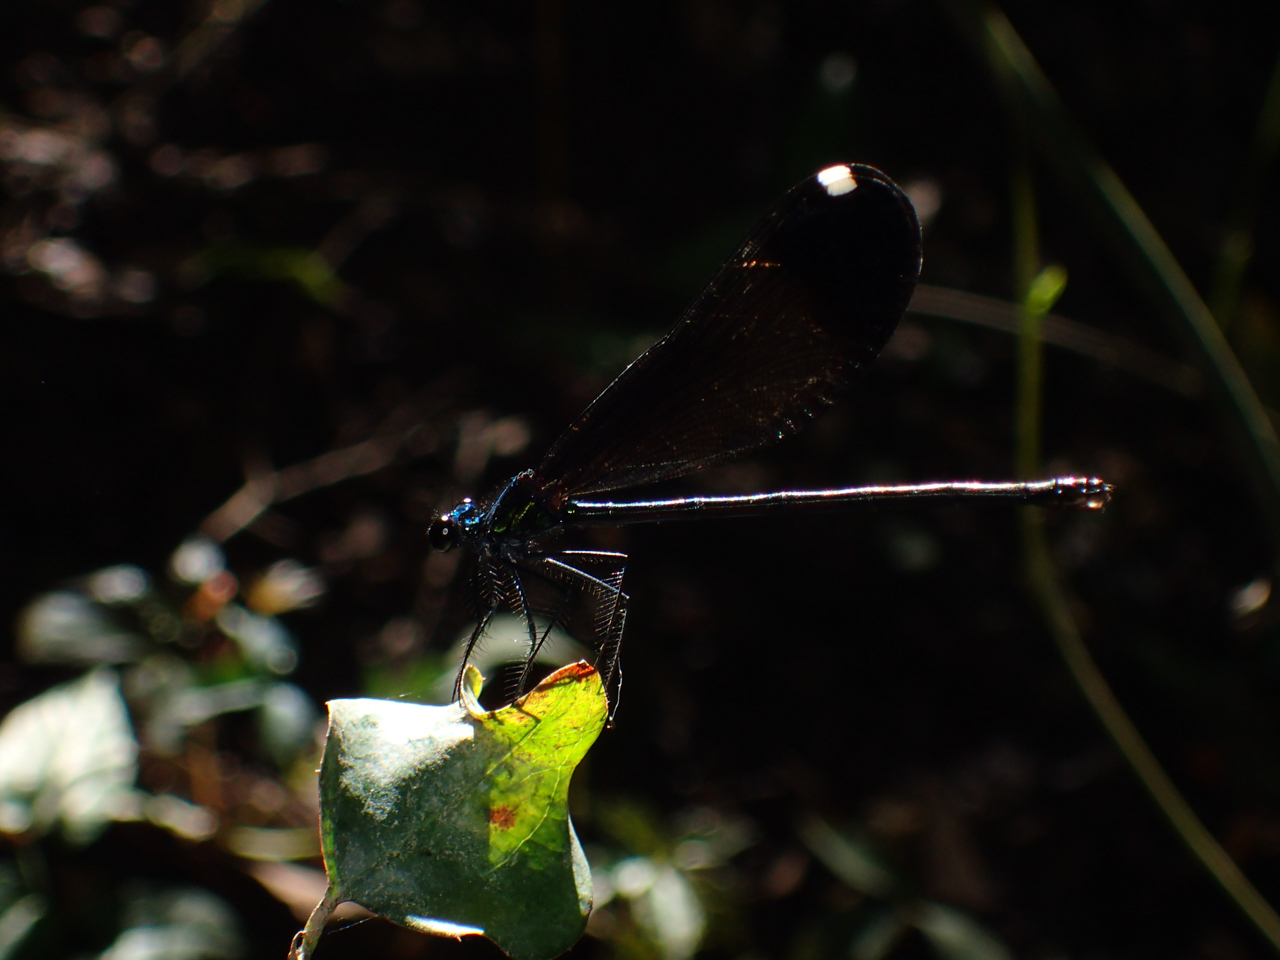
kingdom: Animalia
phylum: Arthropoda
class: Insecta
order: Odonata
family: Calopterygidae
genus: Calopteryx
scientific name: Calopteryx maculata
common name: Ebony jewelwing
